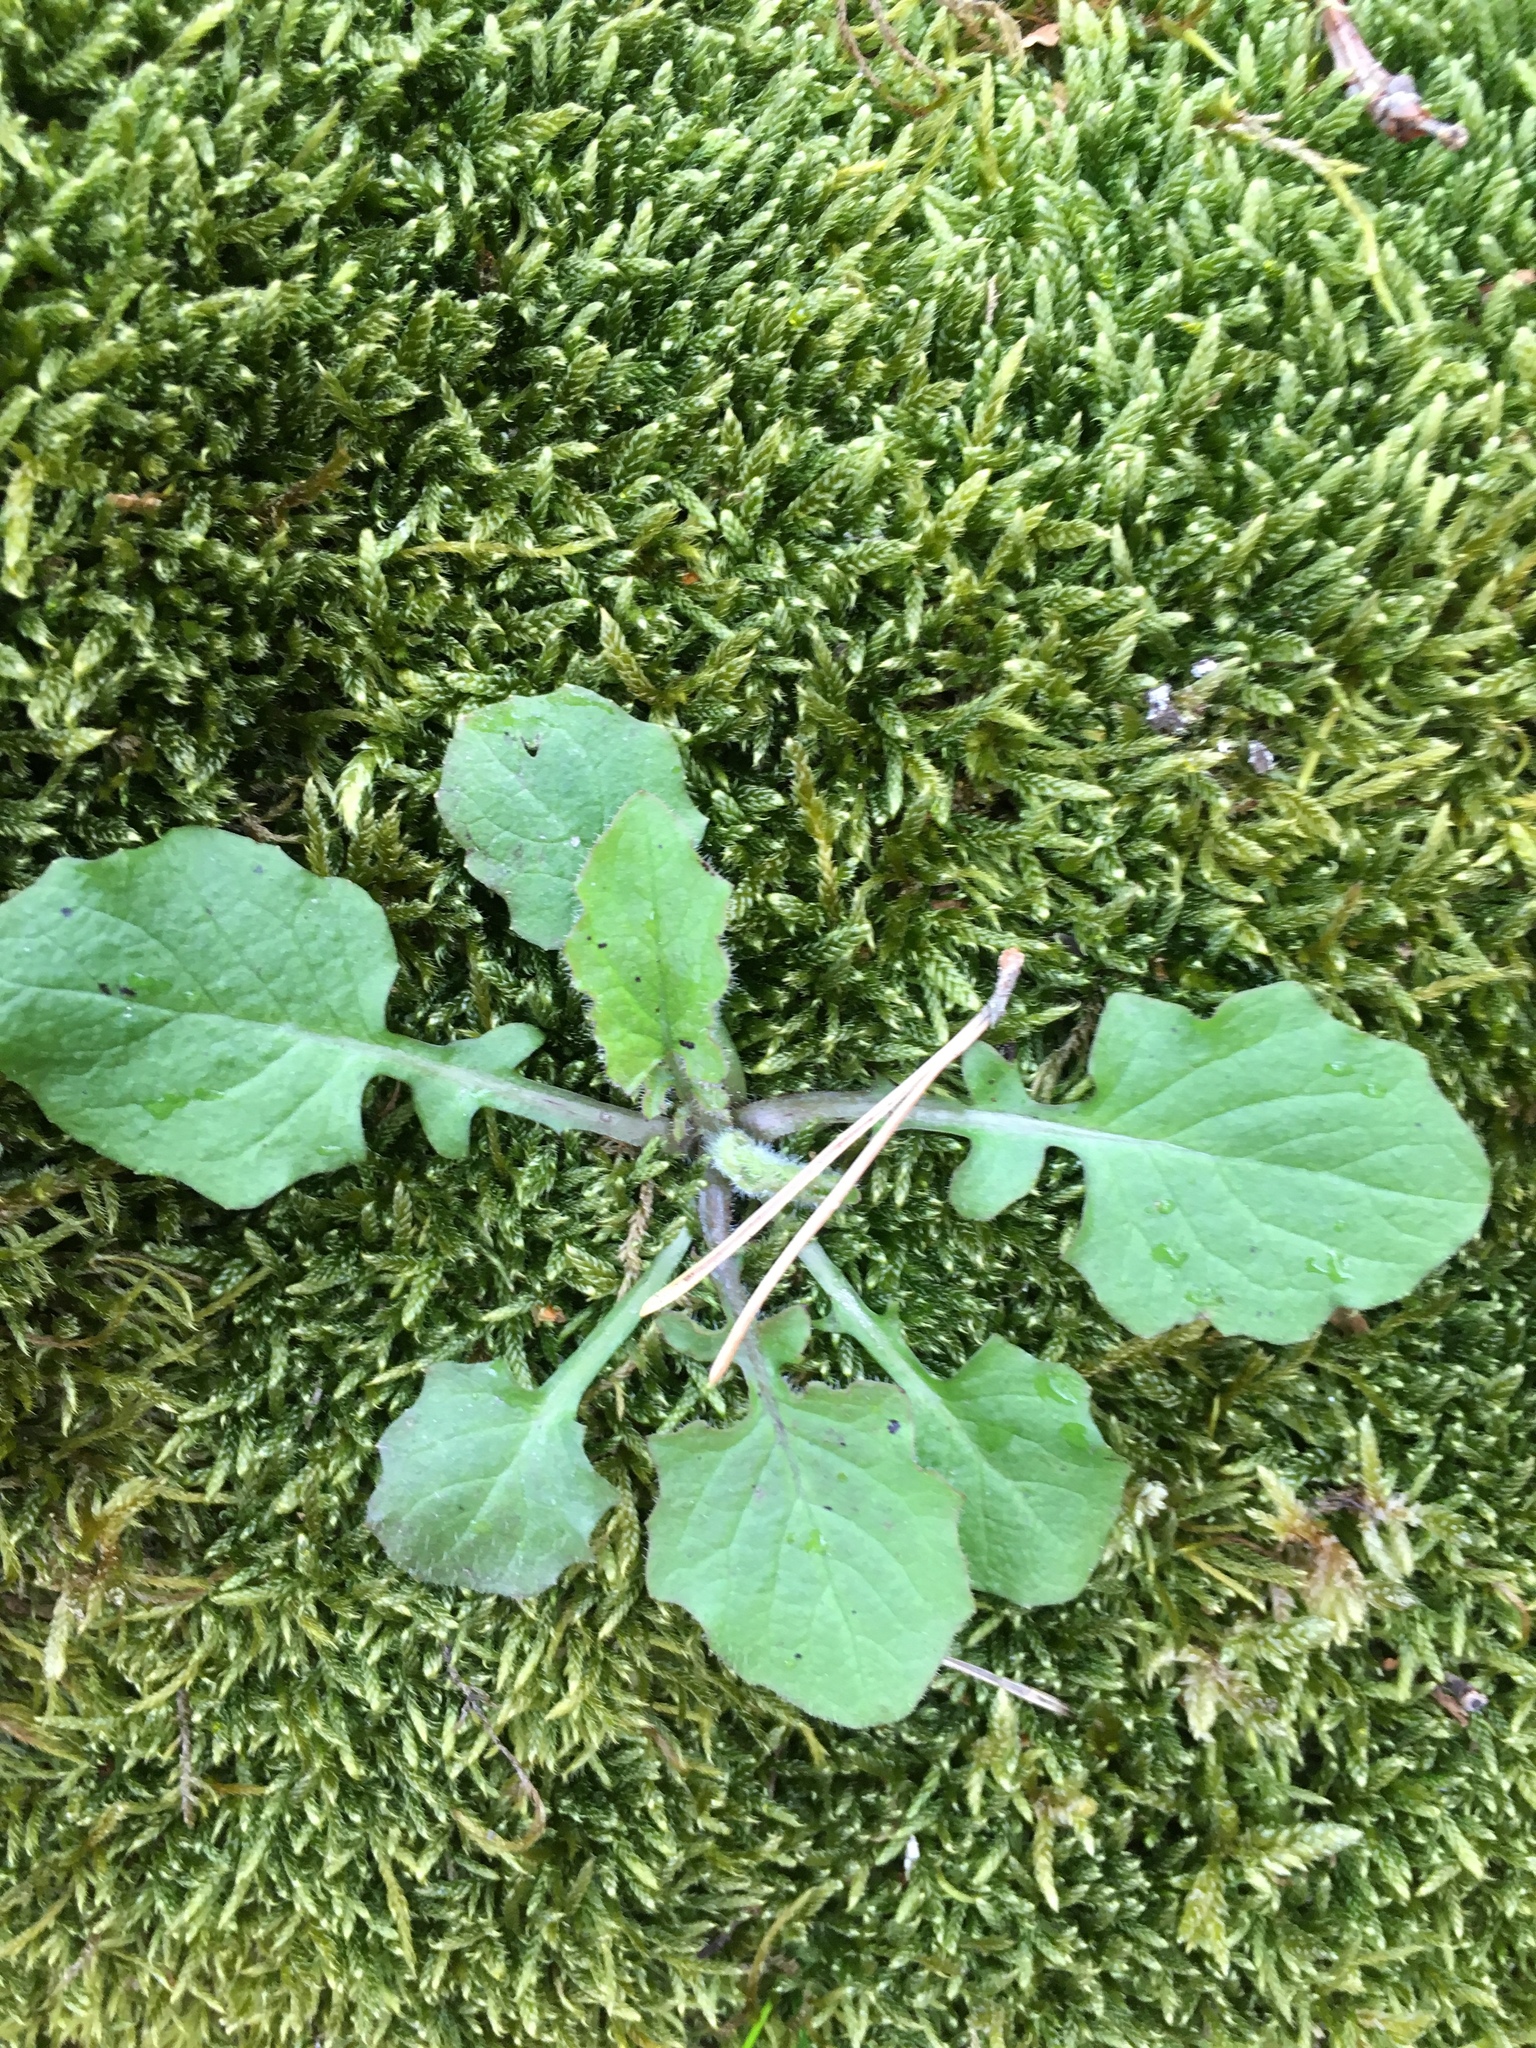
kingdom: Plantae
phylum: Tracheophyta
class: Magnoliopsida
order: Asterales
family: Asteraceae
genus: Lapsana
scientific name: Lapsana communis
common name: Nipplewort
